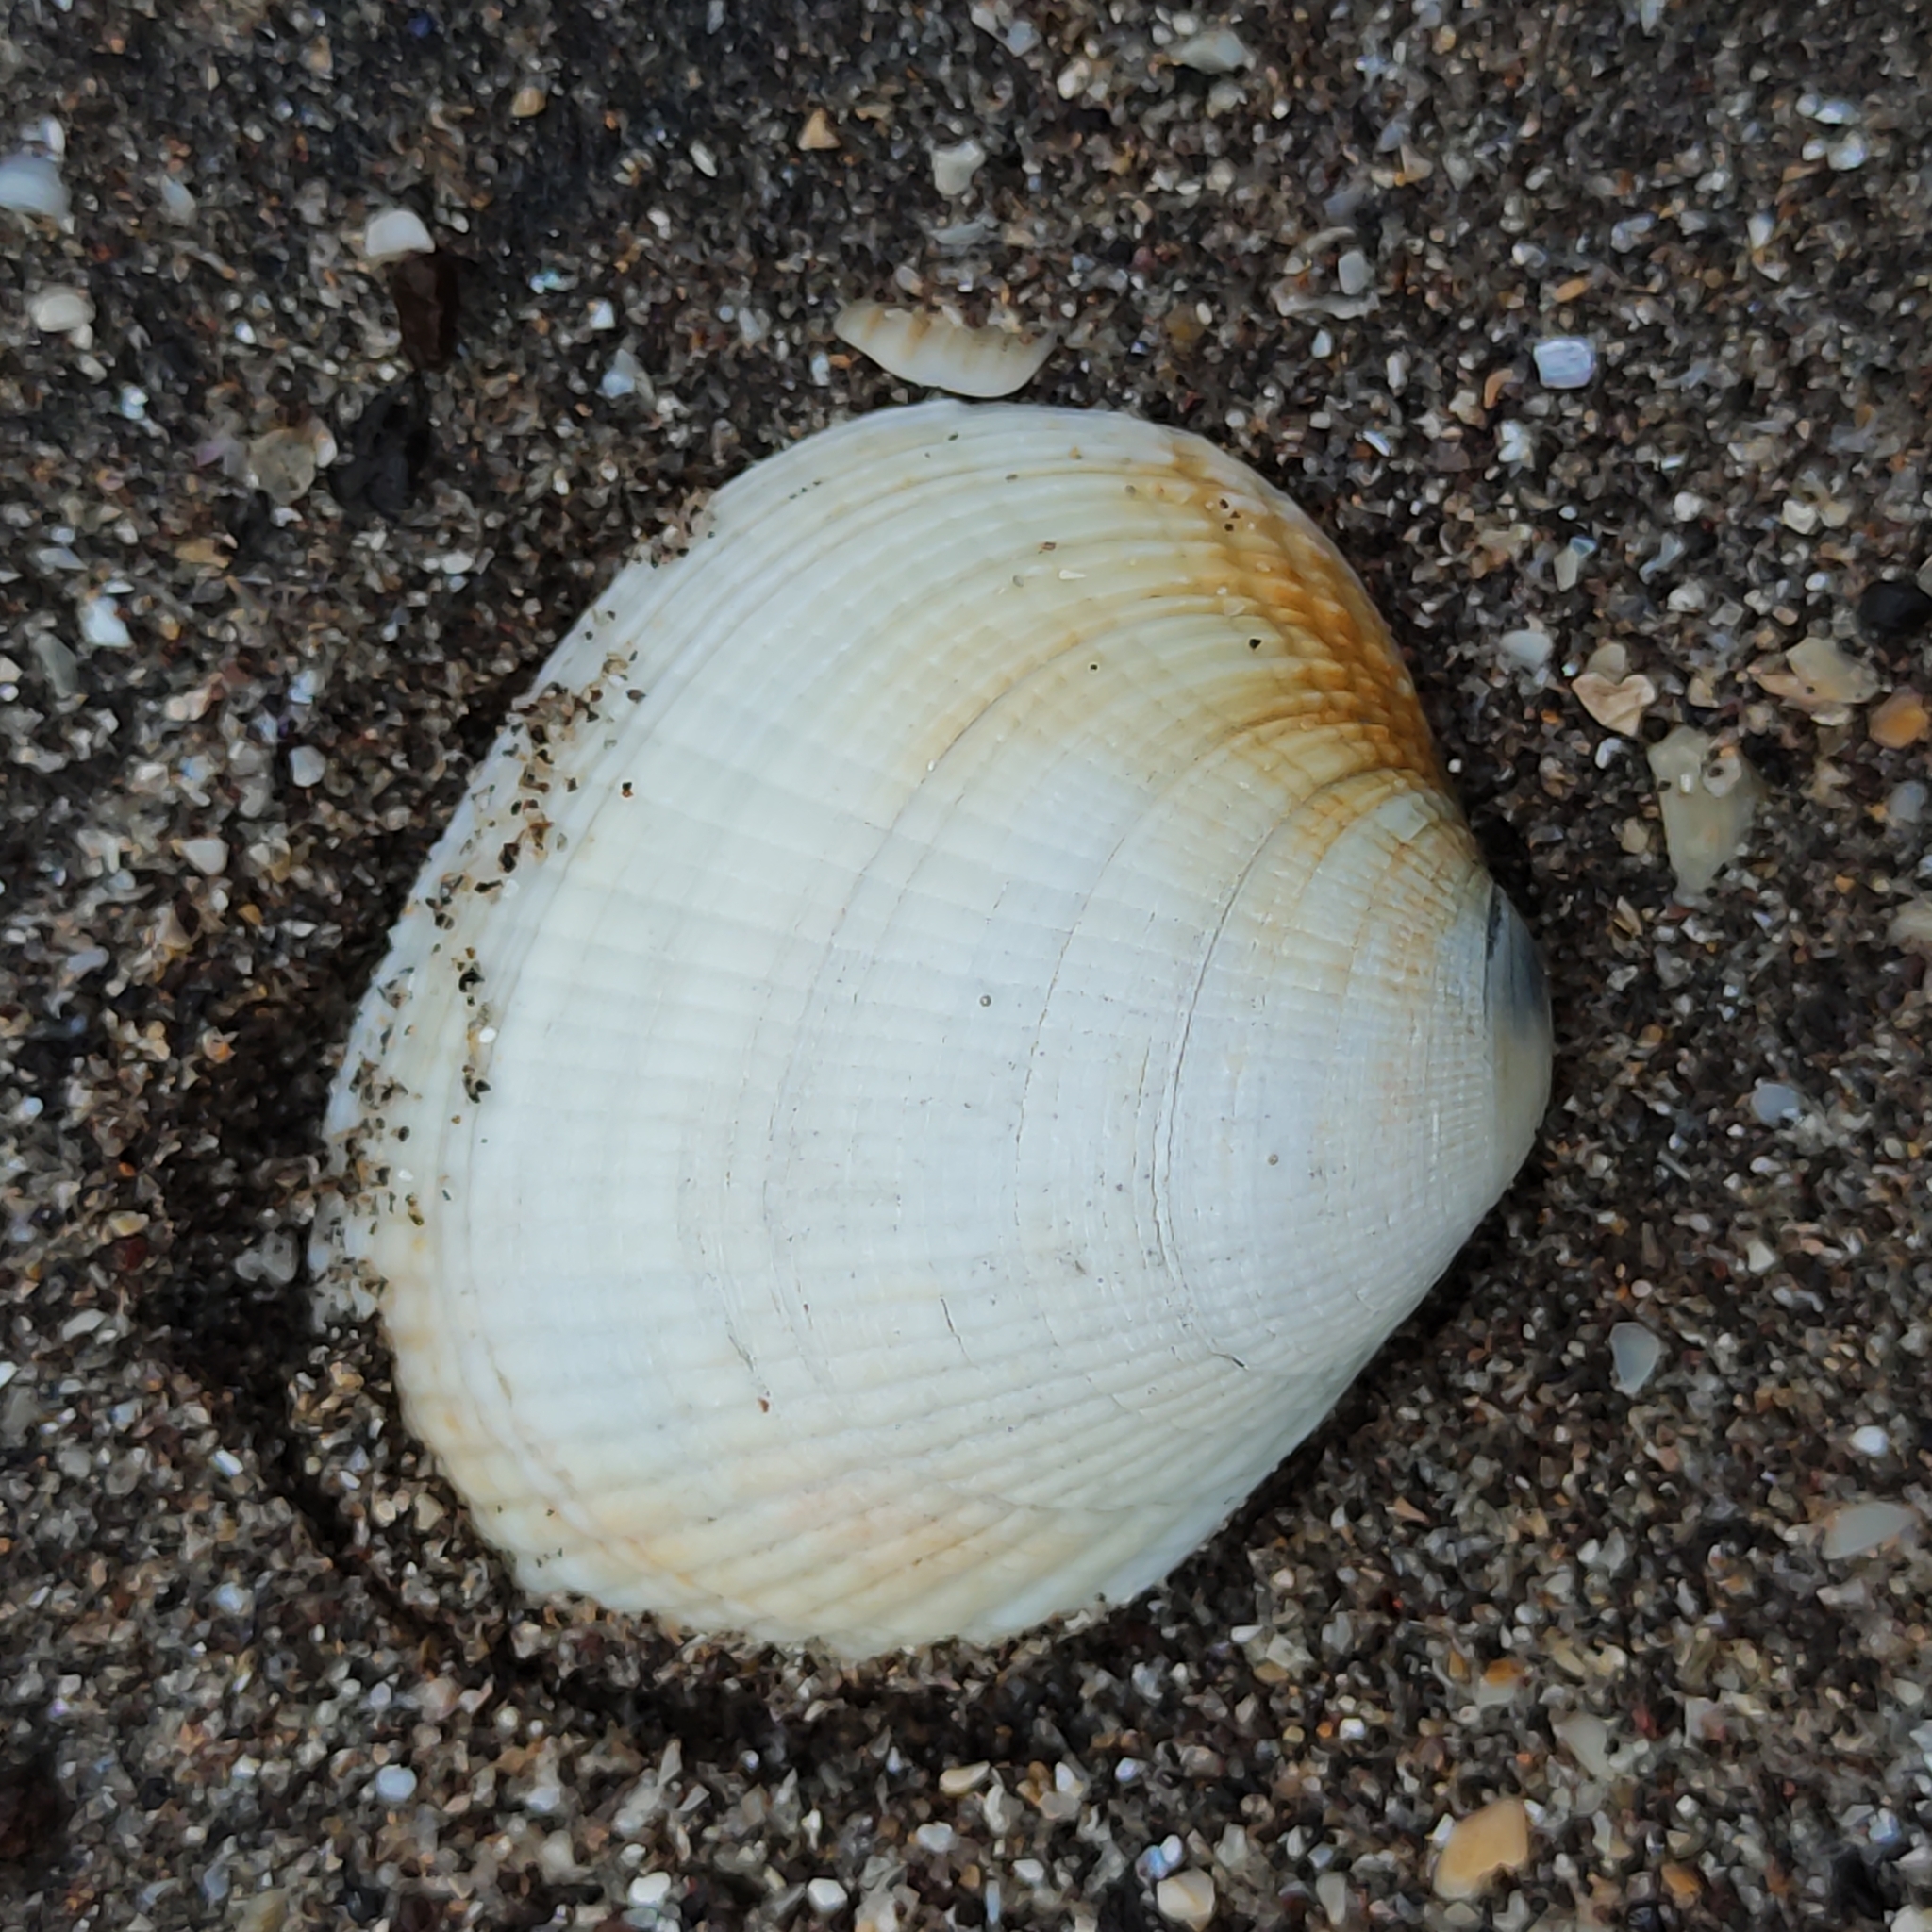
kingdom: Animalia
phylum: Mollusca
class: Bivalvia
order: Venerida
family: Veneridae
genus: Leukoma
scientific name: Leukoma crassicosta
